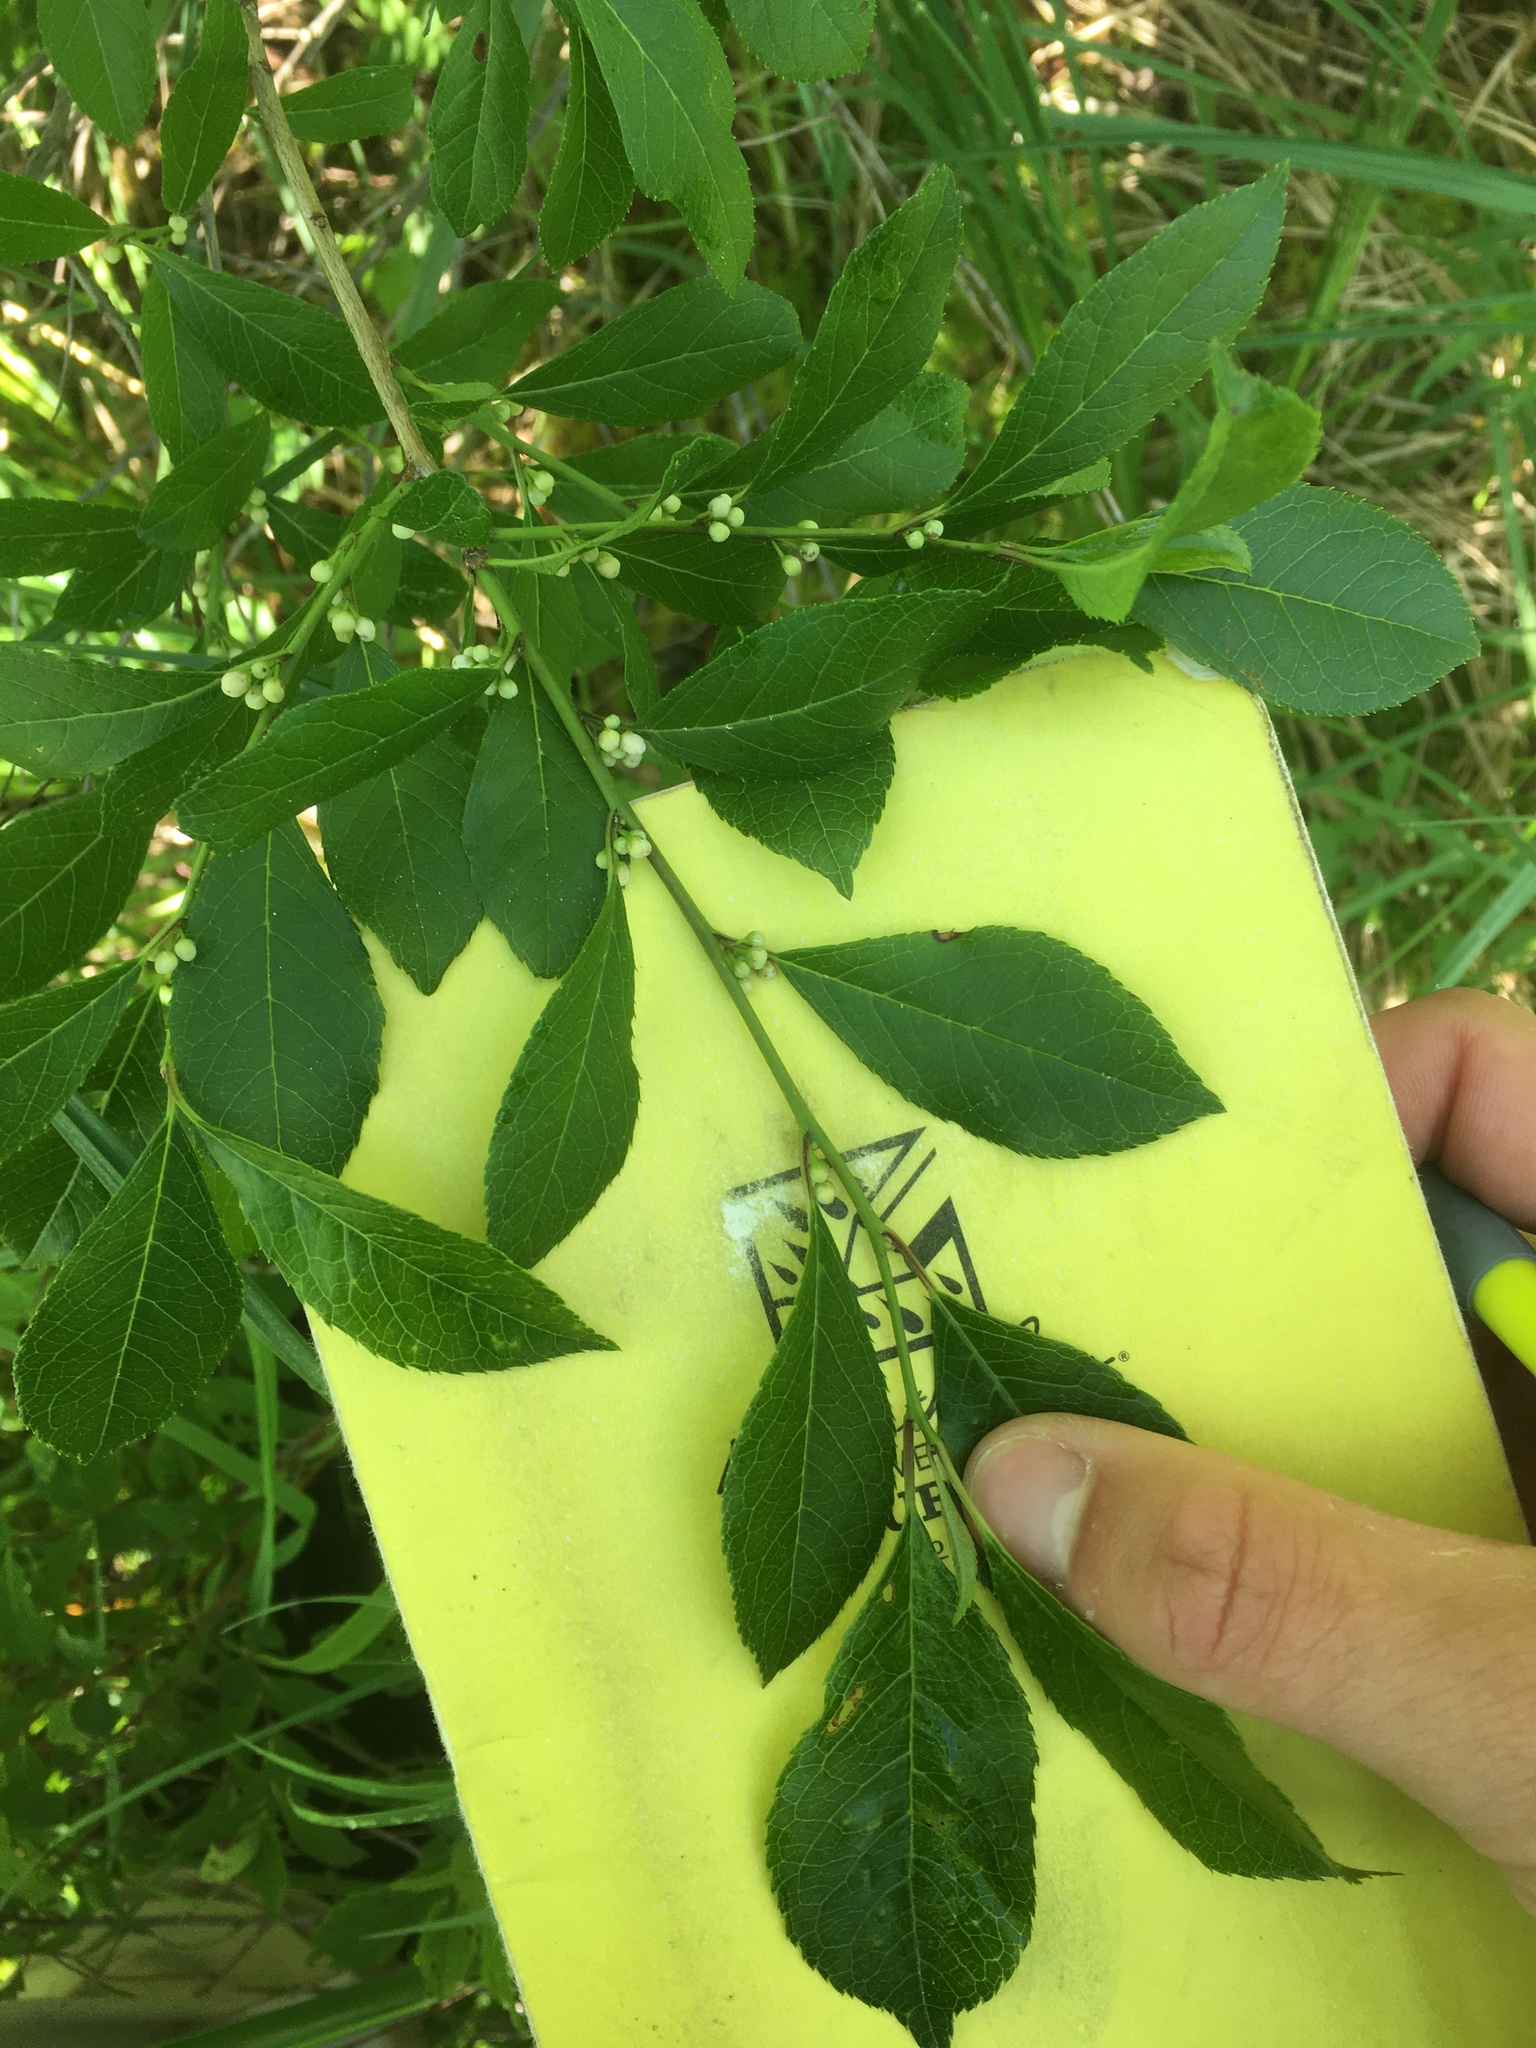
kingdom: Plantae
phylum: Tracheophyta
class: Magnoliopsida
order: Aquifoliales
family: Aquifoliaceae
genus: Ilex
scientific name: Ilex verticillata
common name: Virginia winterberry
